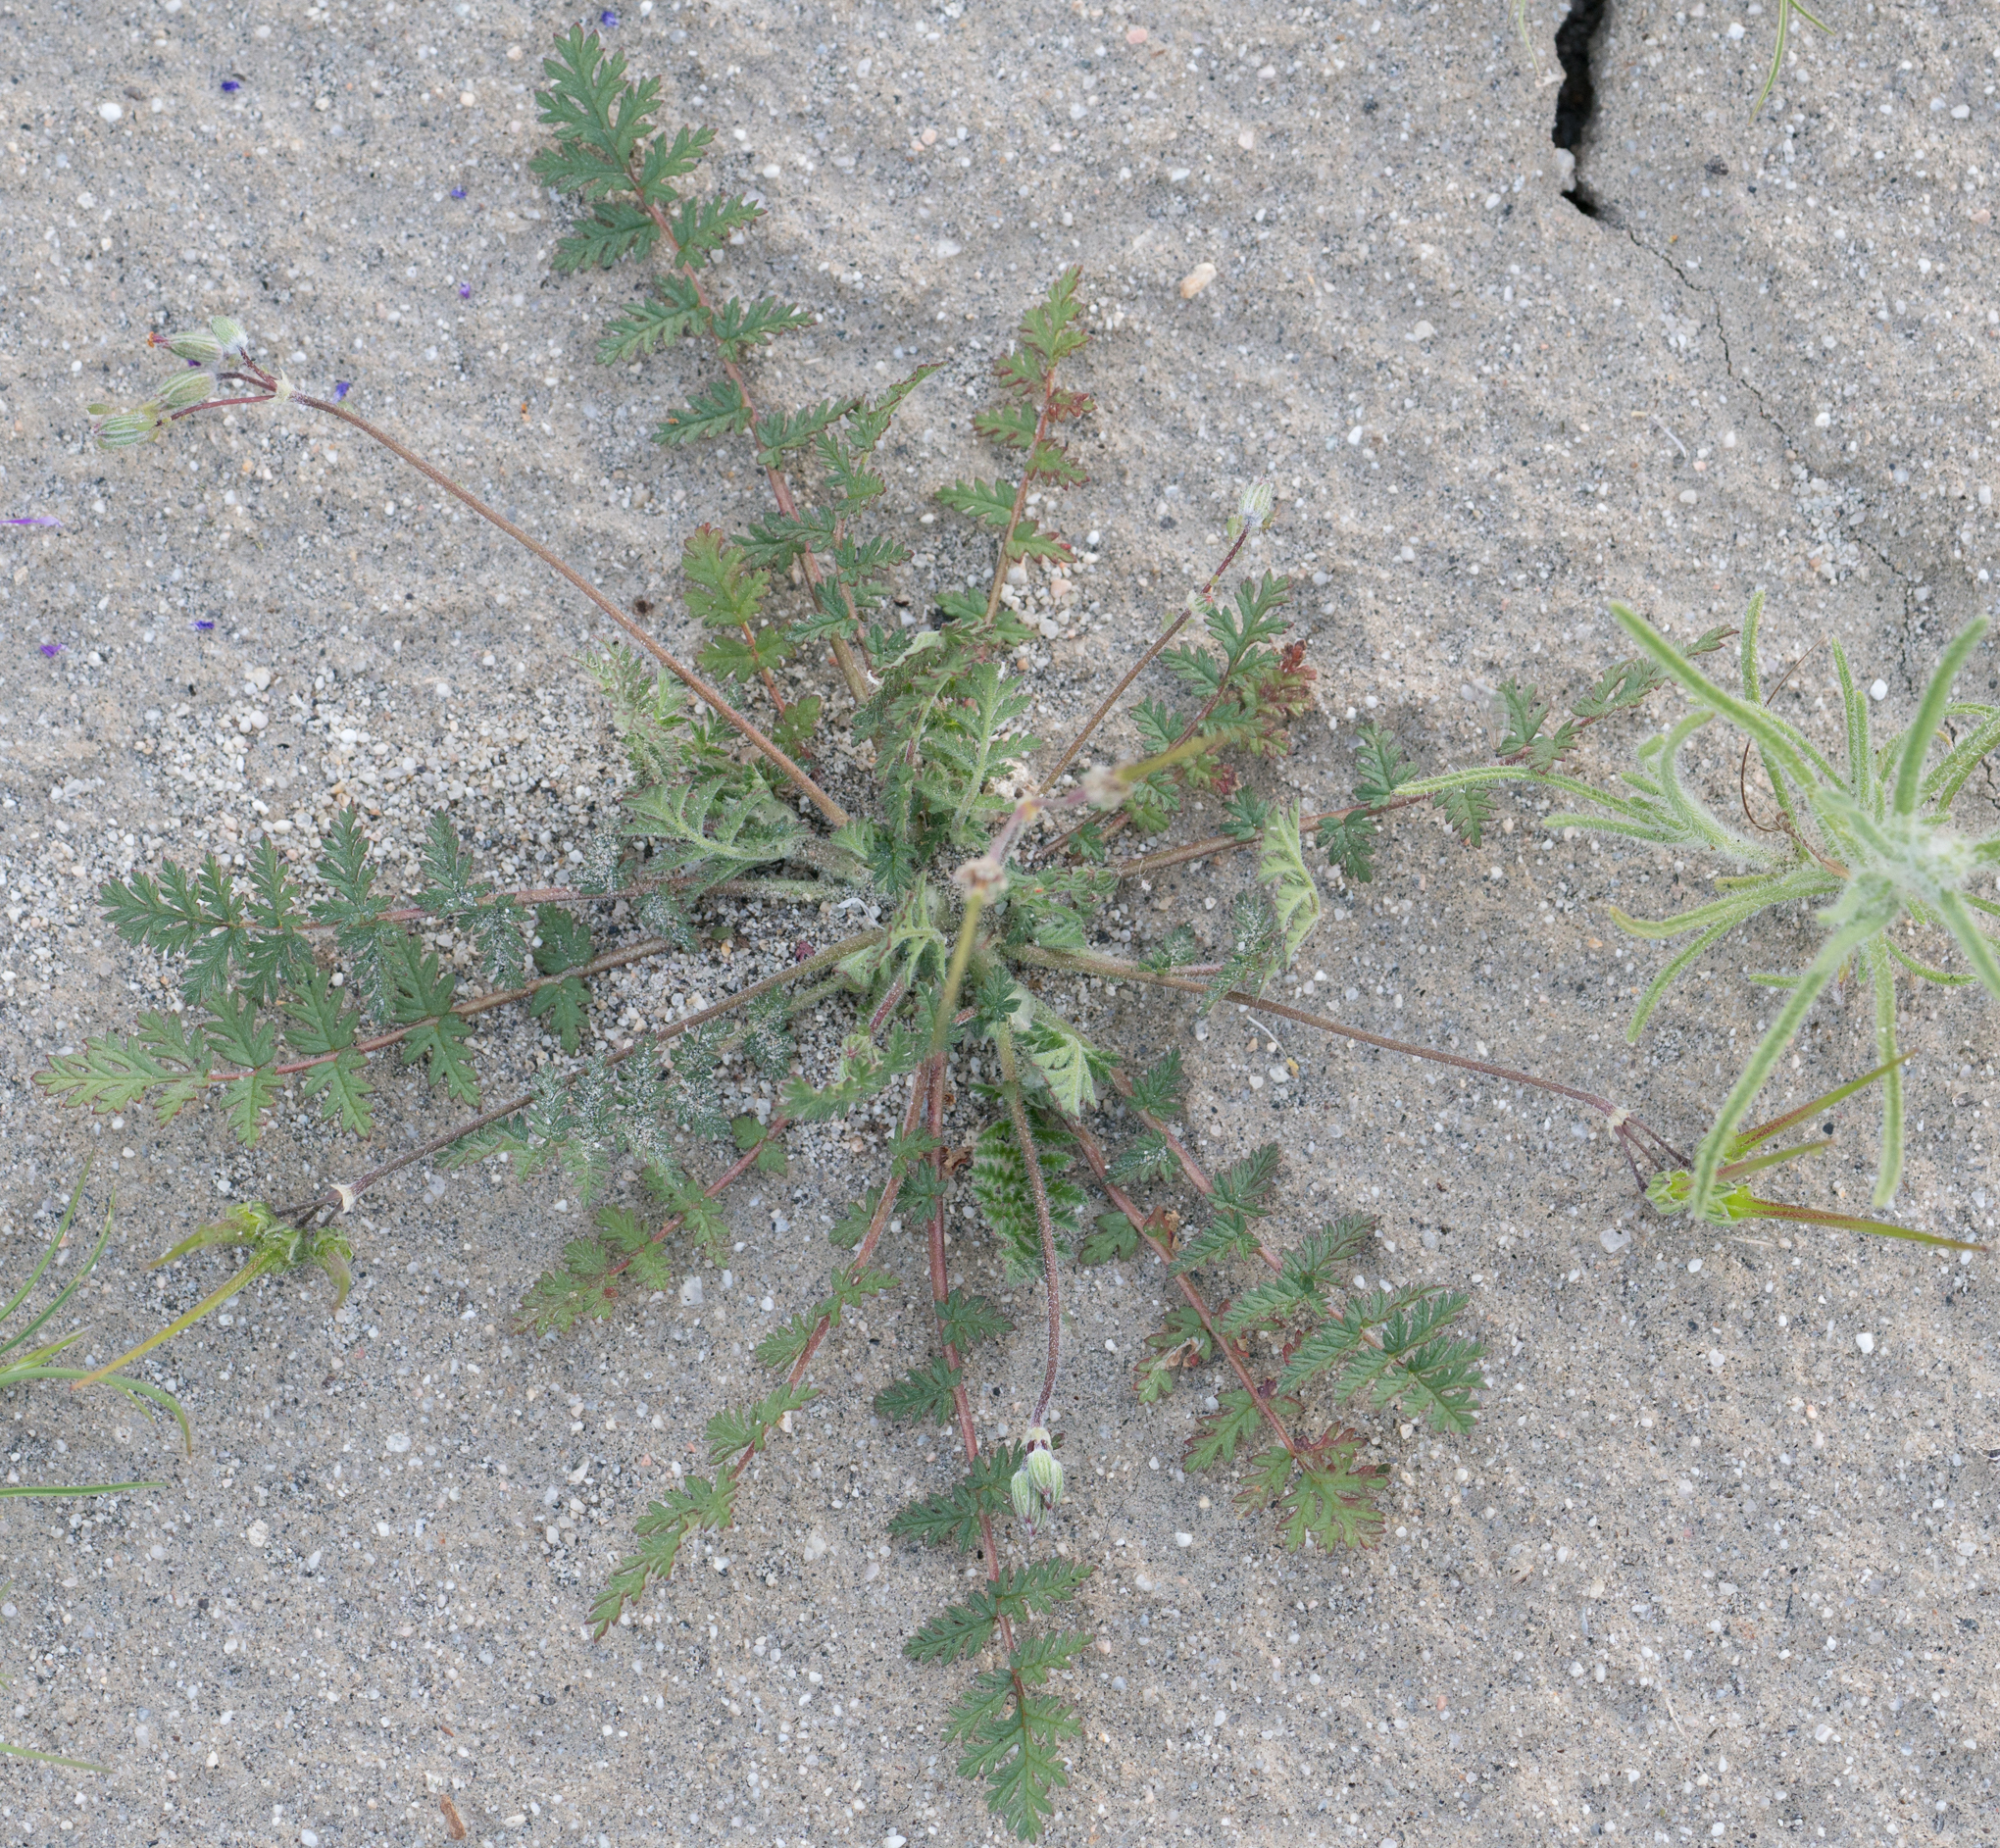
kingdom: Plantae
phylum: Tracheophyta
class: Magnoliopsida
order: Geraniales
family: Geraniaceae
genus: Erodium
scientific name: Erodium cicutarium
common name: Common stork's-bill
